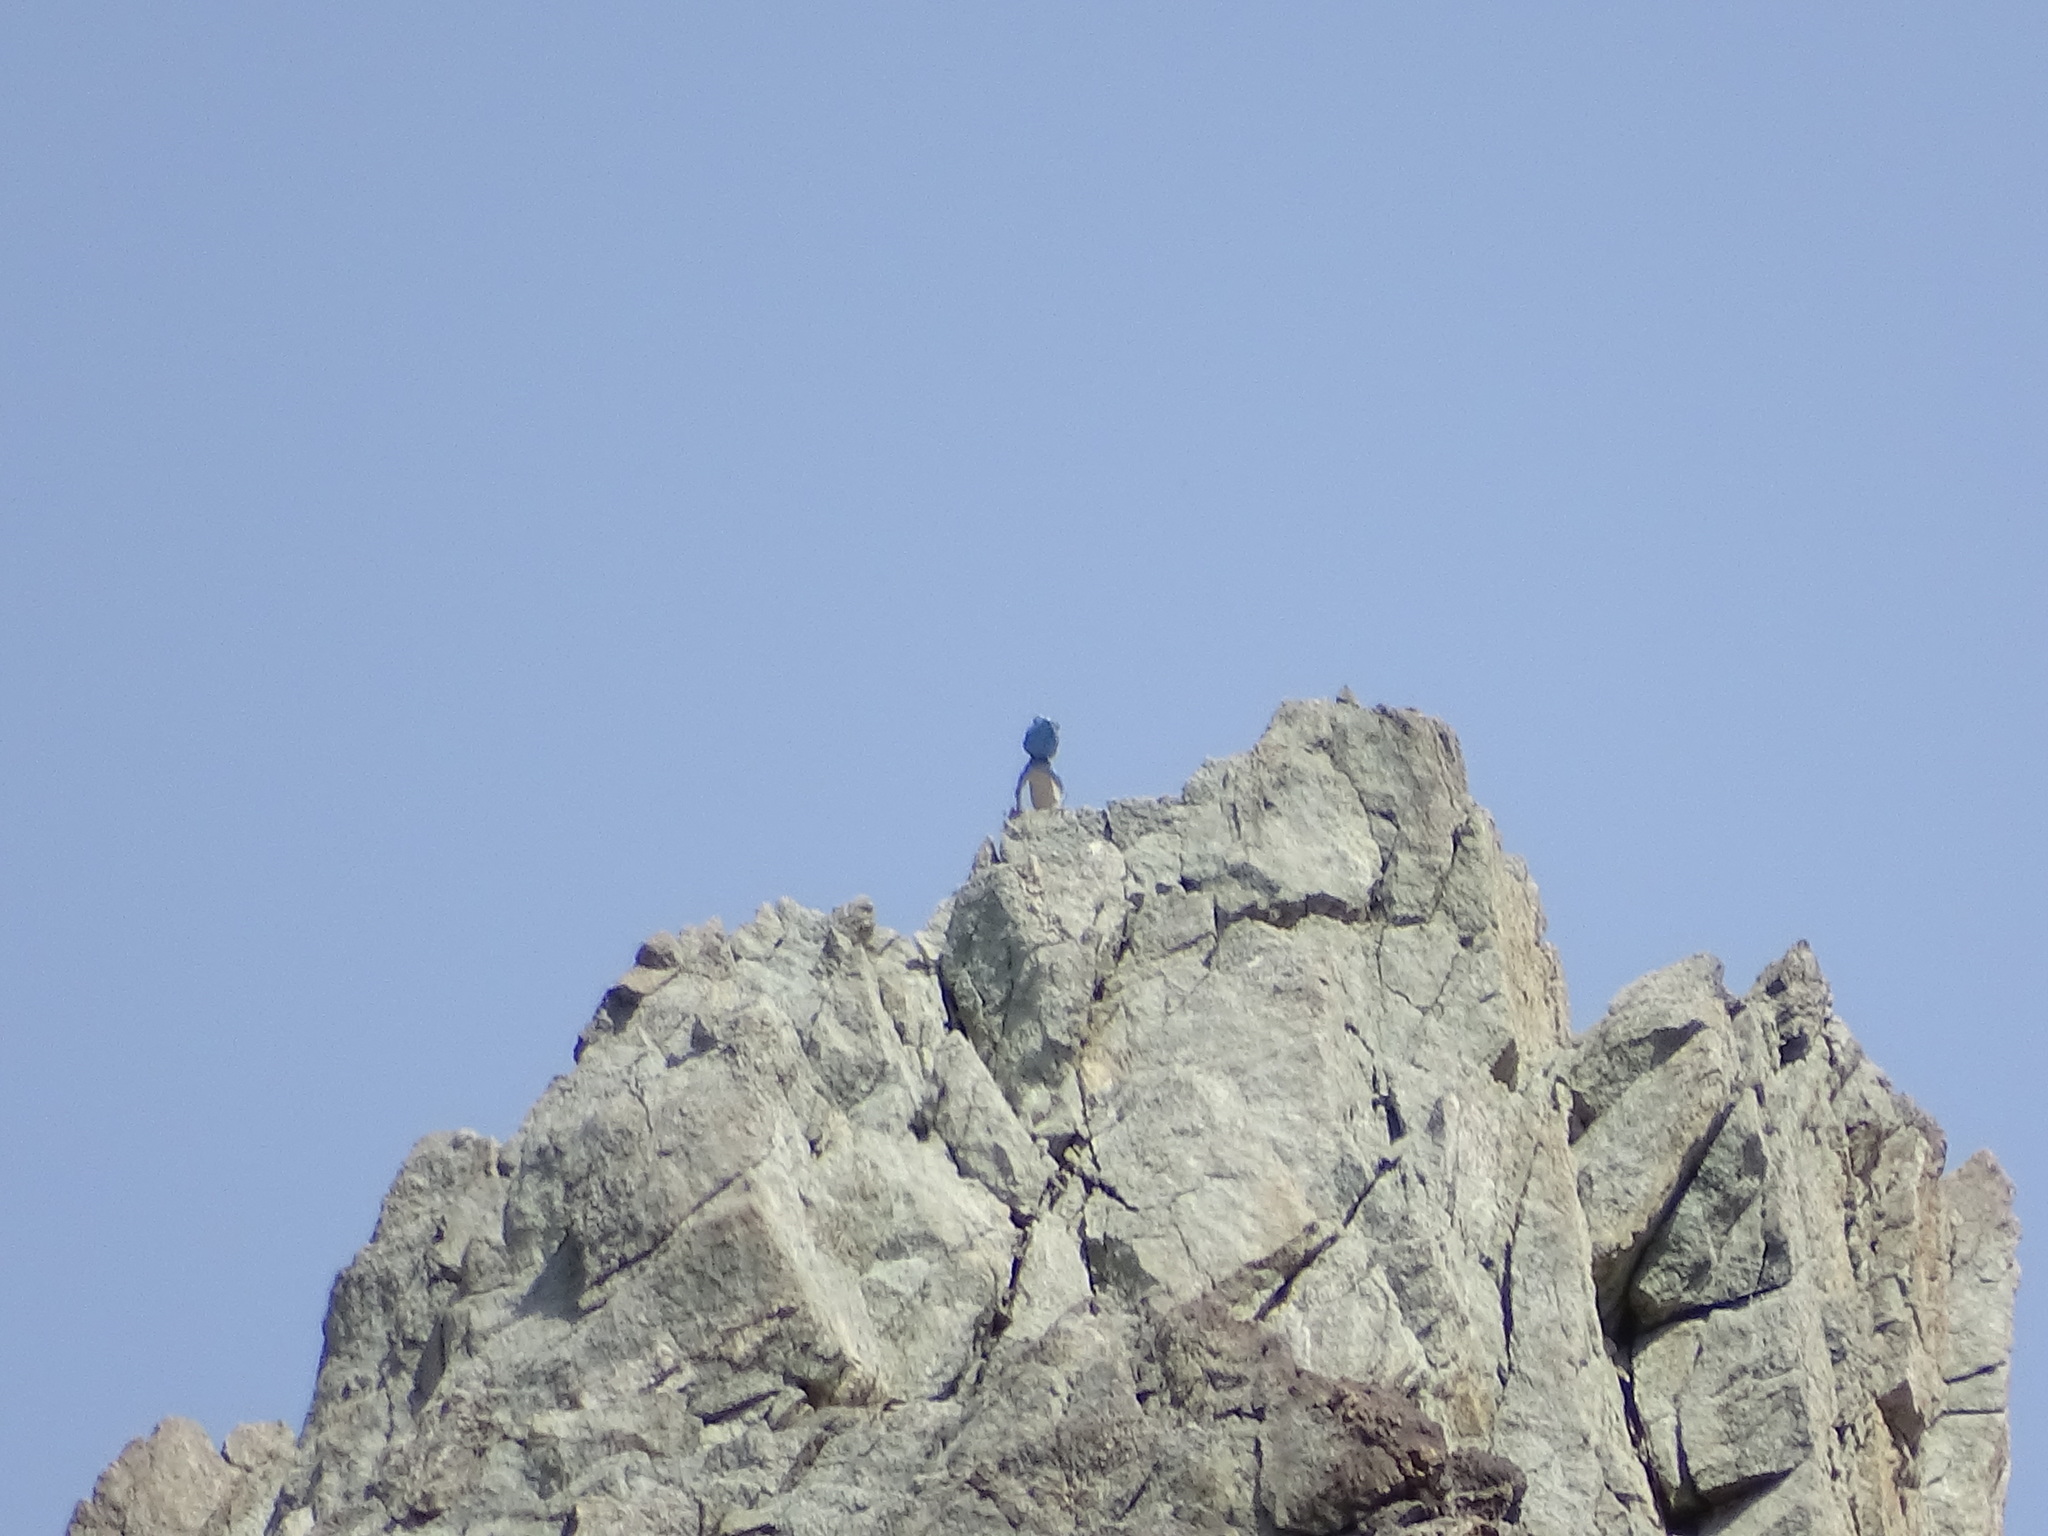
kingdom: Animalia
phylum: Chordata
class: Squamata
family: Agamidae
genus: Pseudotrapelus
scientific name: Pseudotrapelus jensvindumi
